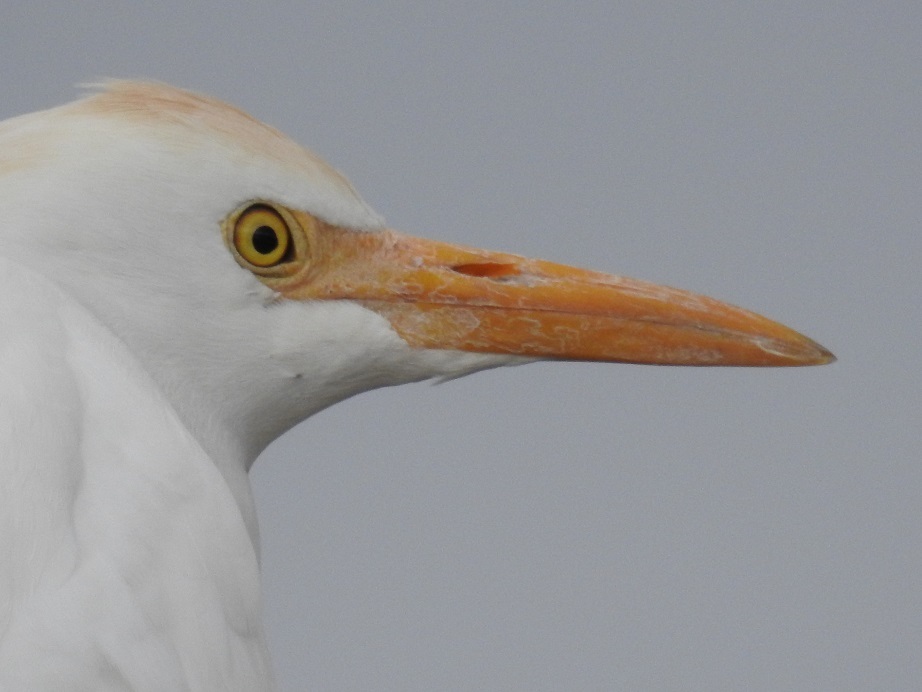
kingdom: Animalia
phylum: Chordata
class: Aves
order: Pelecaniformes
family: Ardeidae
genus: Bubulcus
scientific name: Bubulcus ibis
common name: Cattle egret
